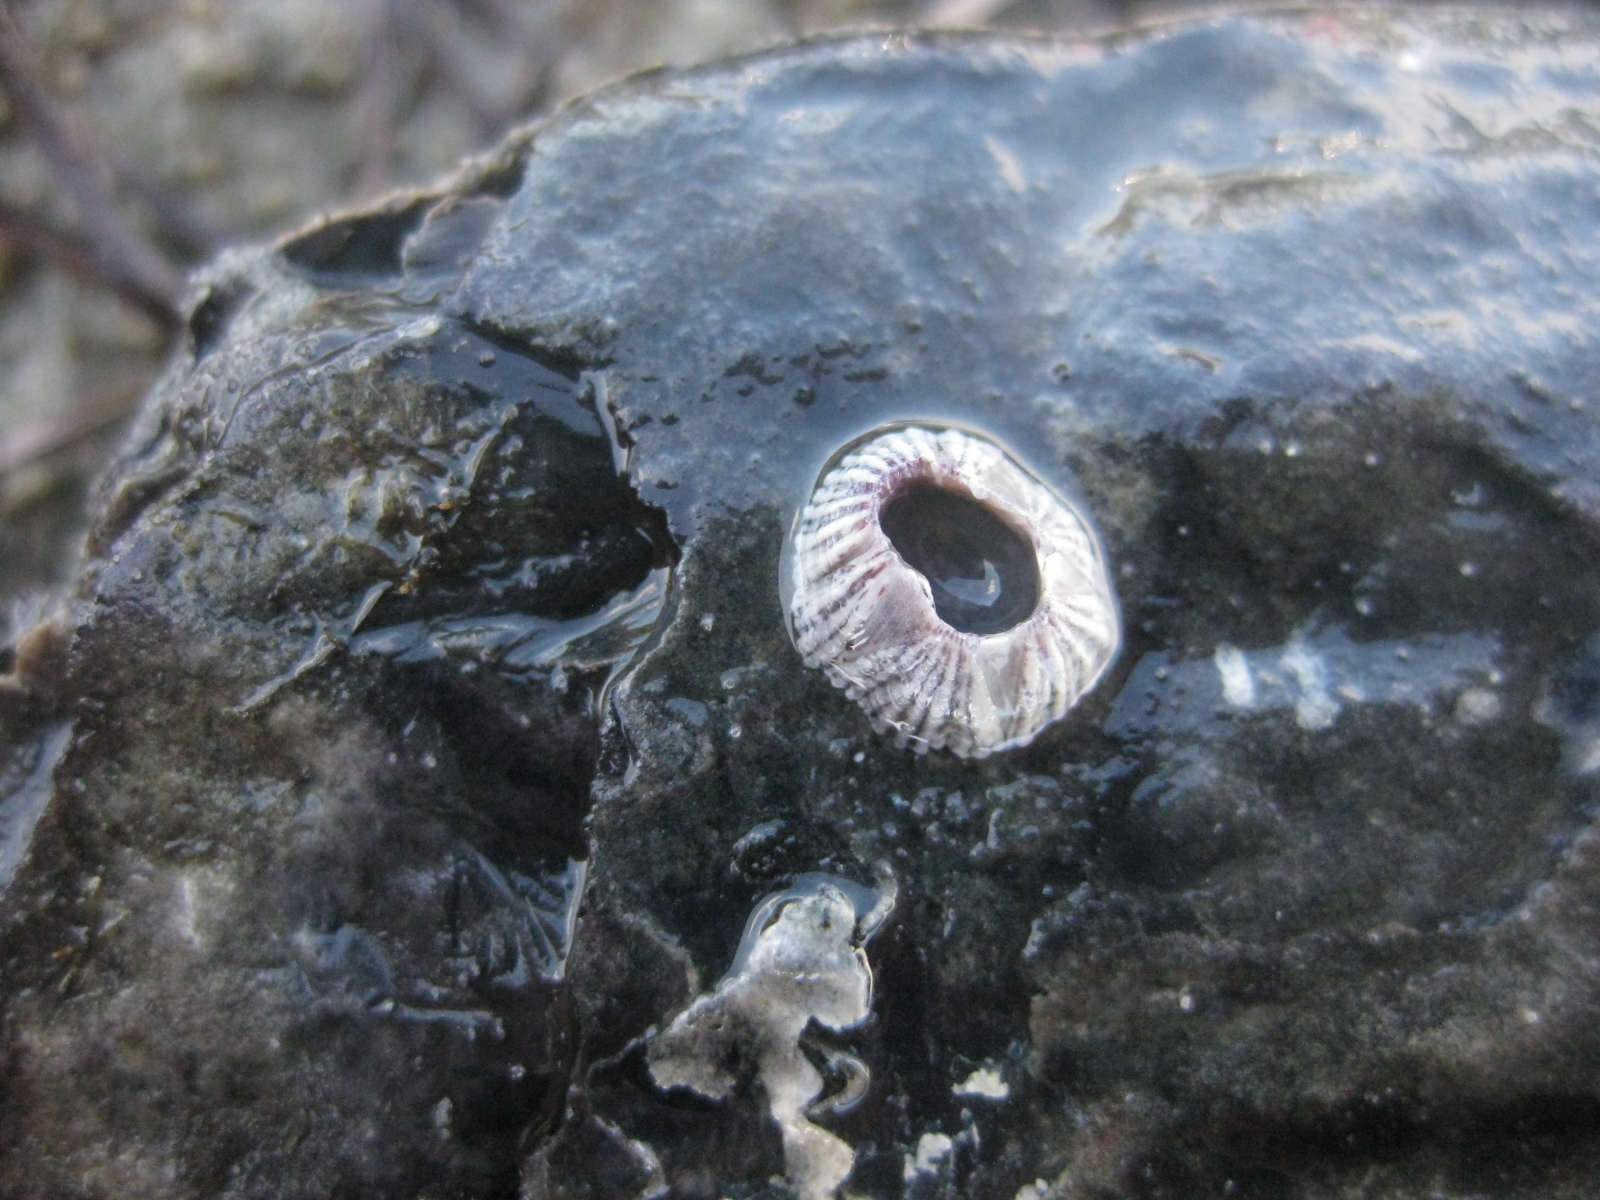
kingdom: Animalia
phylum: Arthropoda
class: Maxillopoda
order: Sessilia
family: Balanidae
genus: Balanus
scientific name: Balanus trigonus
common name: Triangle barnacle
